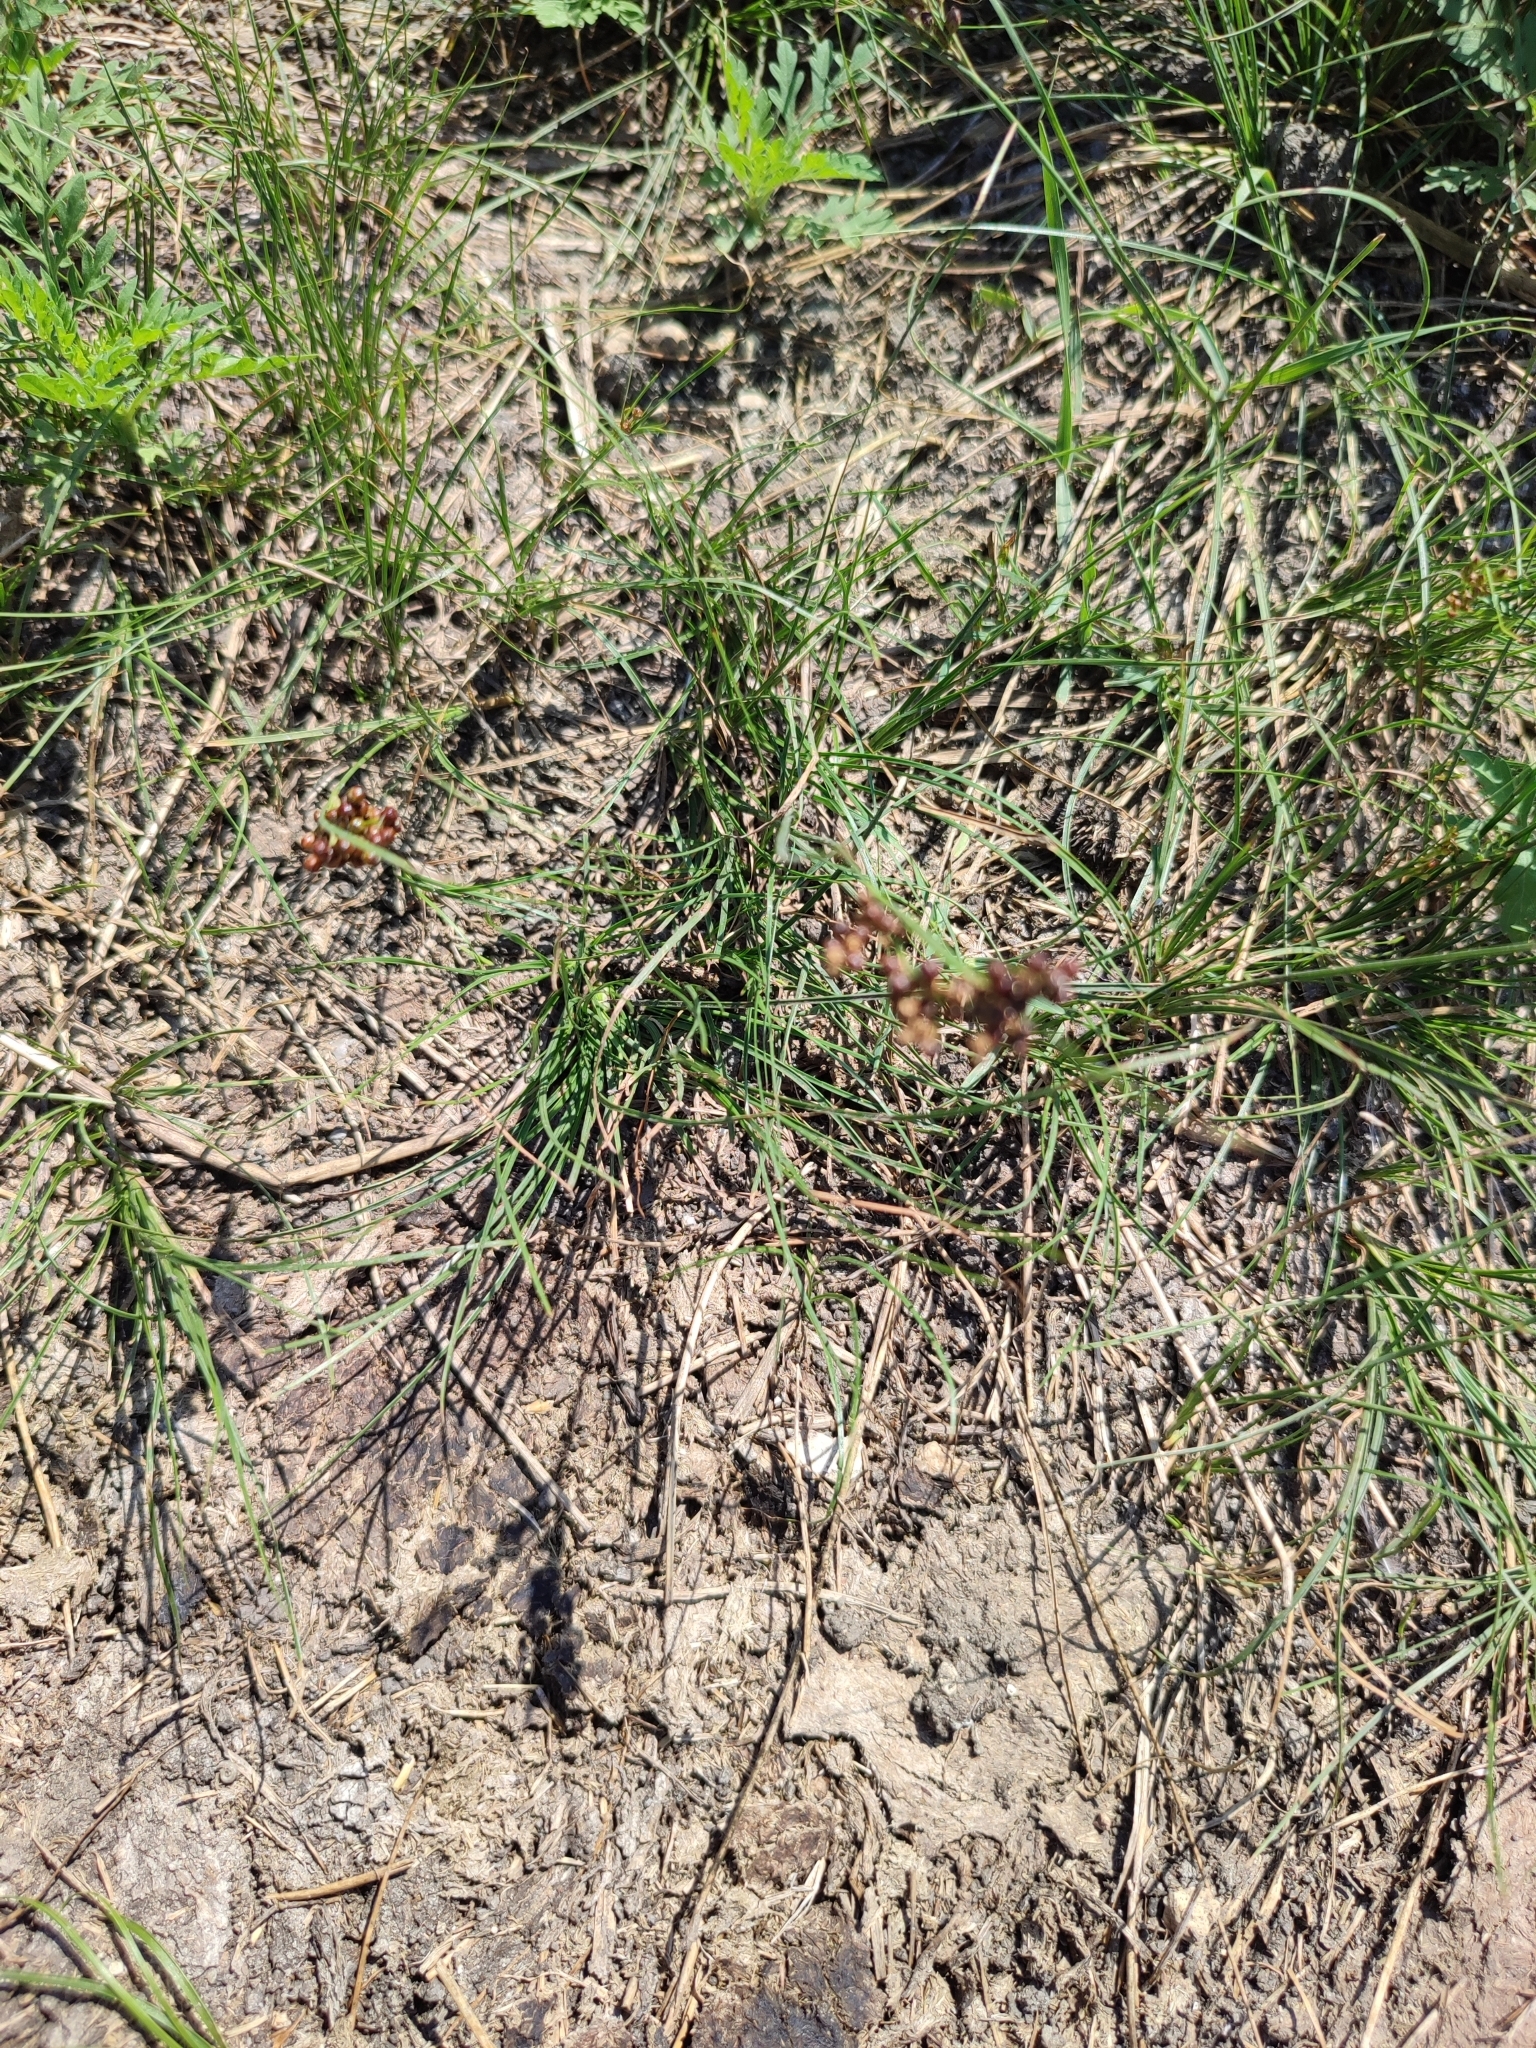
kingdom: Plantae
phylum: Tracheophyta
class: Liliopsida
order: Poales
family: Juncaceae
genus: Juncus
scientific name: Juncus compressus
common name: Round-fruited rush
